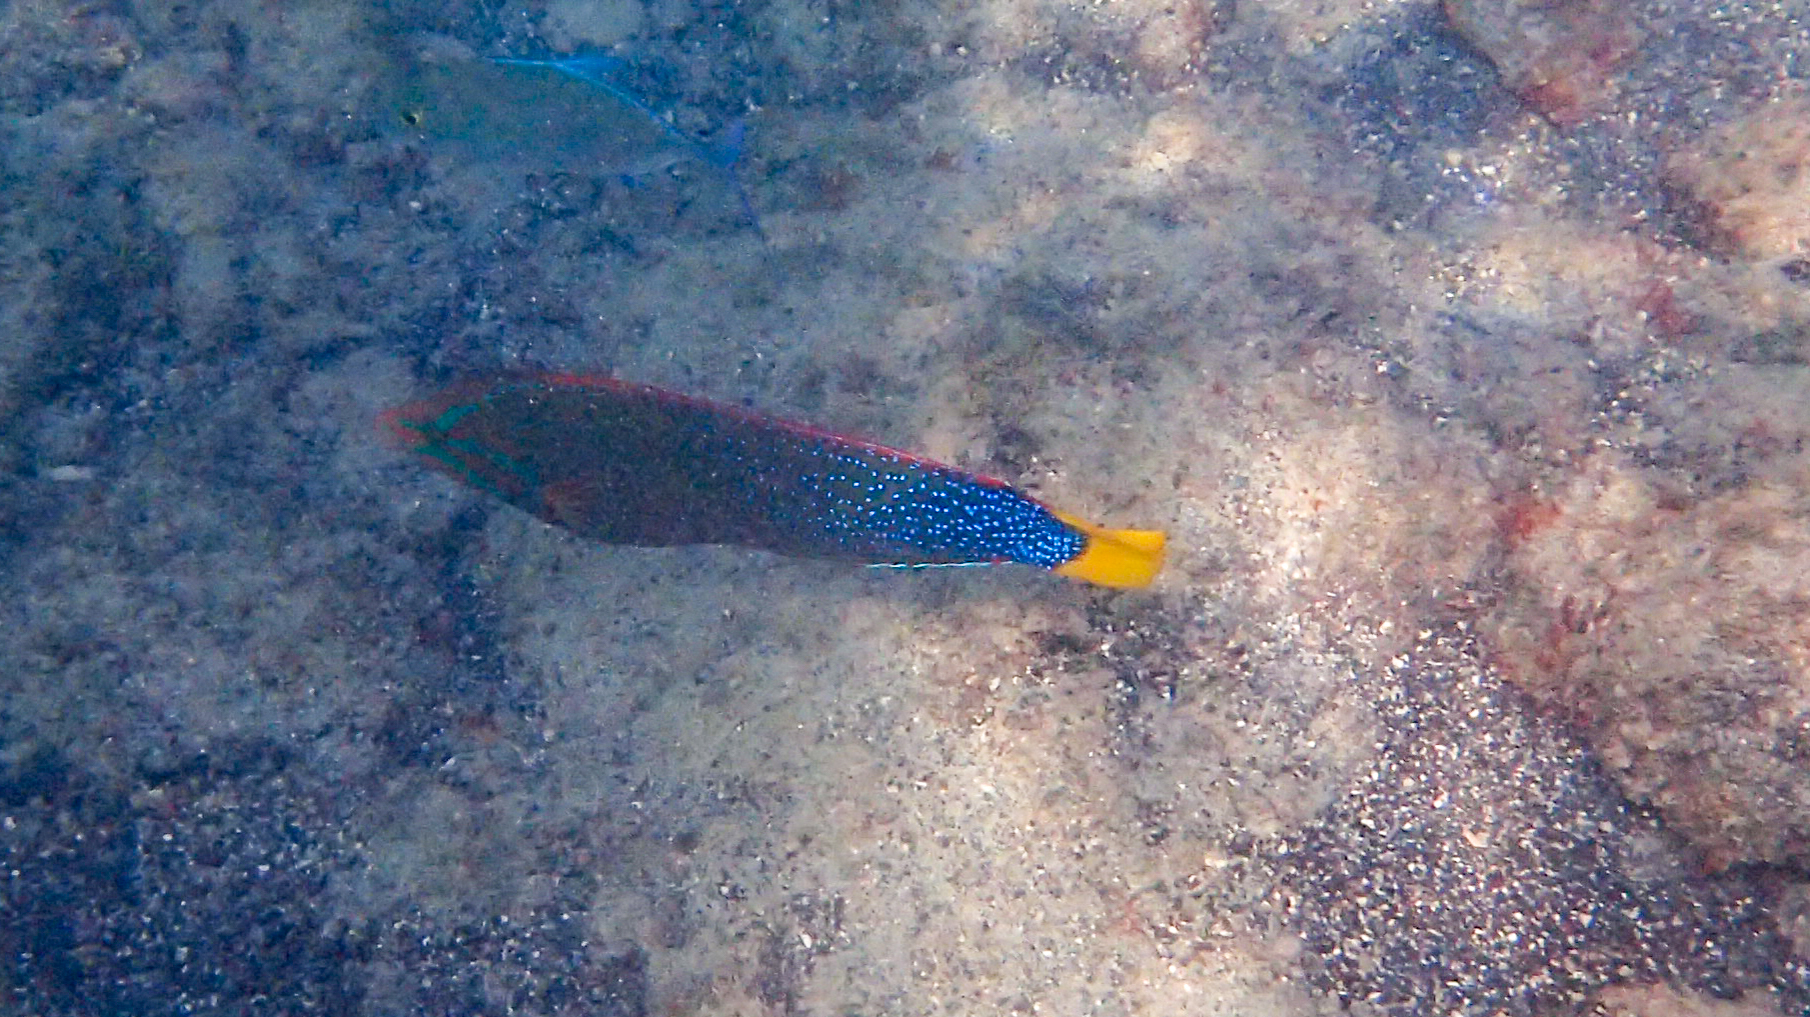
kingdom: Animalia
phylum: Chordata
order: Perciformes
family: Labridae
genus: Coris
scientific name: Coris gaimard
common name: Yellowtail coris
